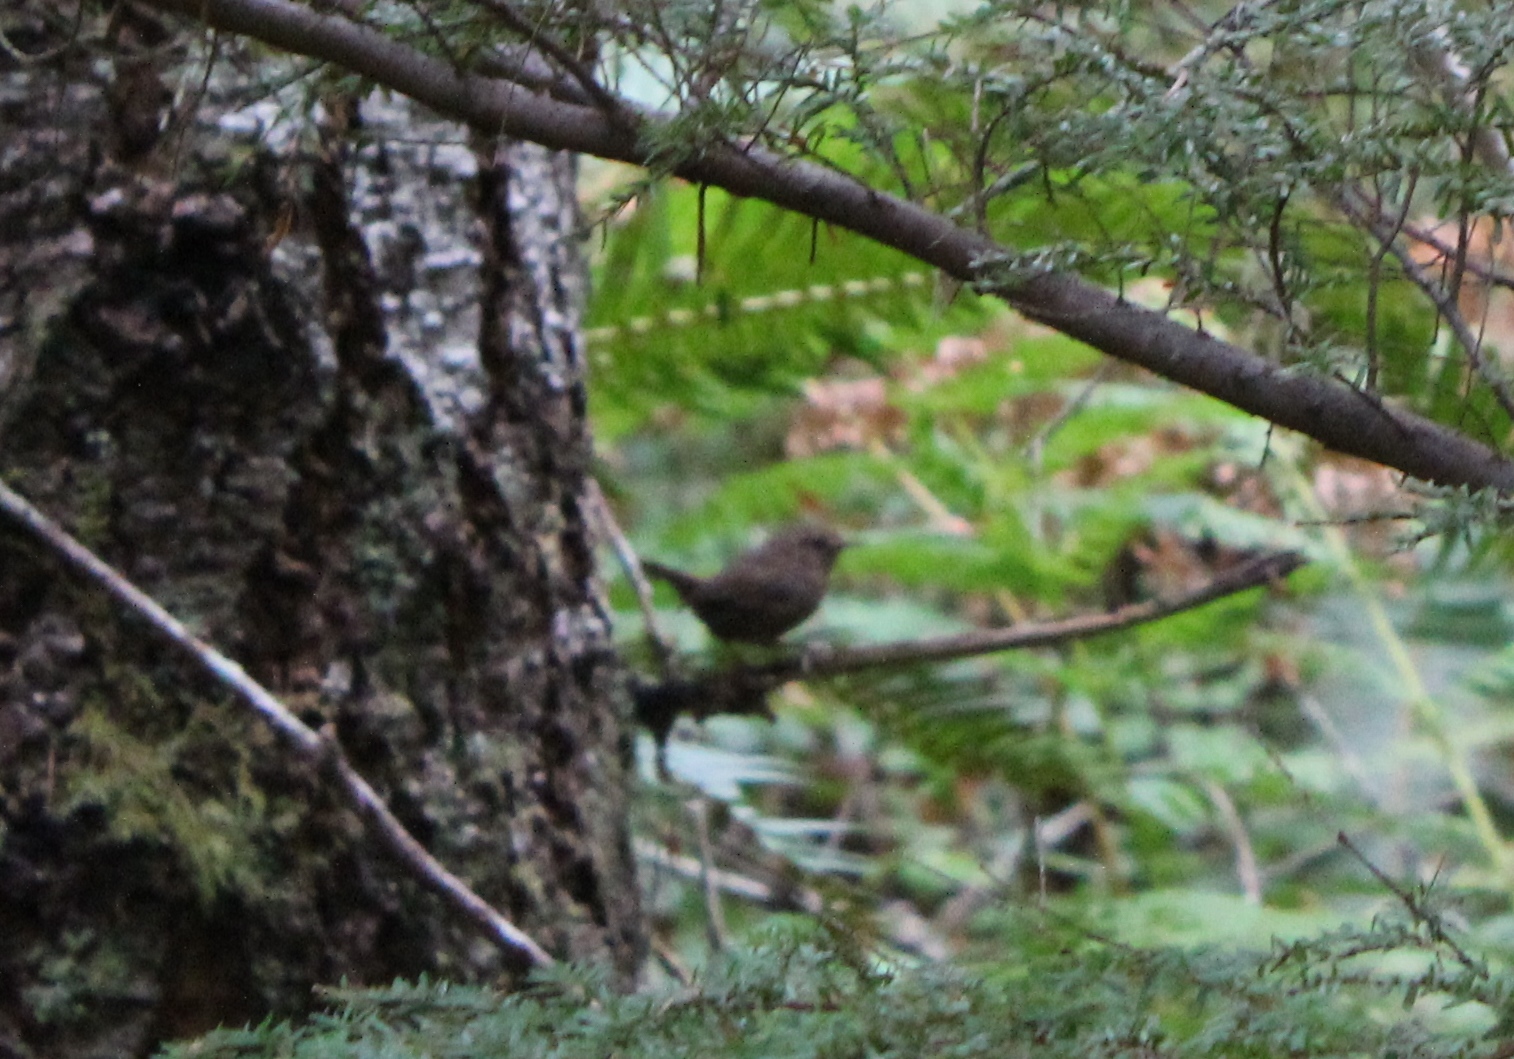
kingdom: Animalia
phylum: Chordata
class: Aves
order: Passeriformes
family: Troglodytidae
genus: Troglodytes
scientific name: Troglodytes pacificus
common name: Pacific wren
